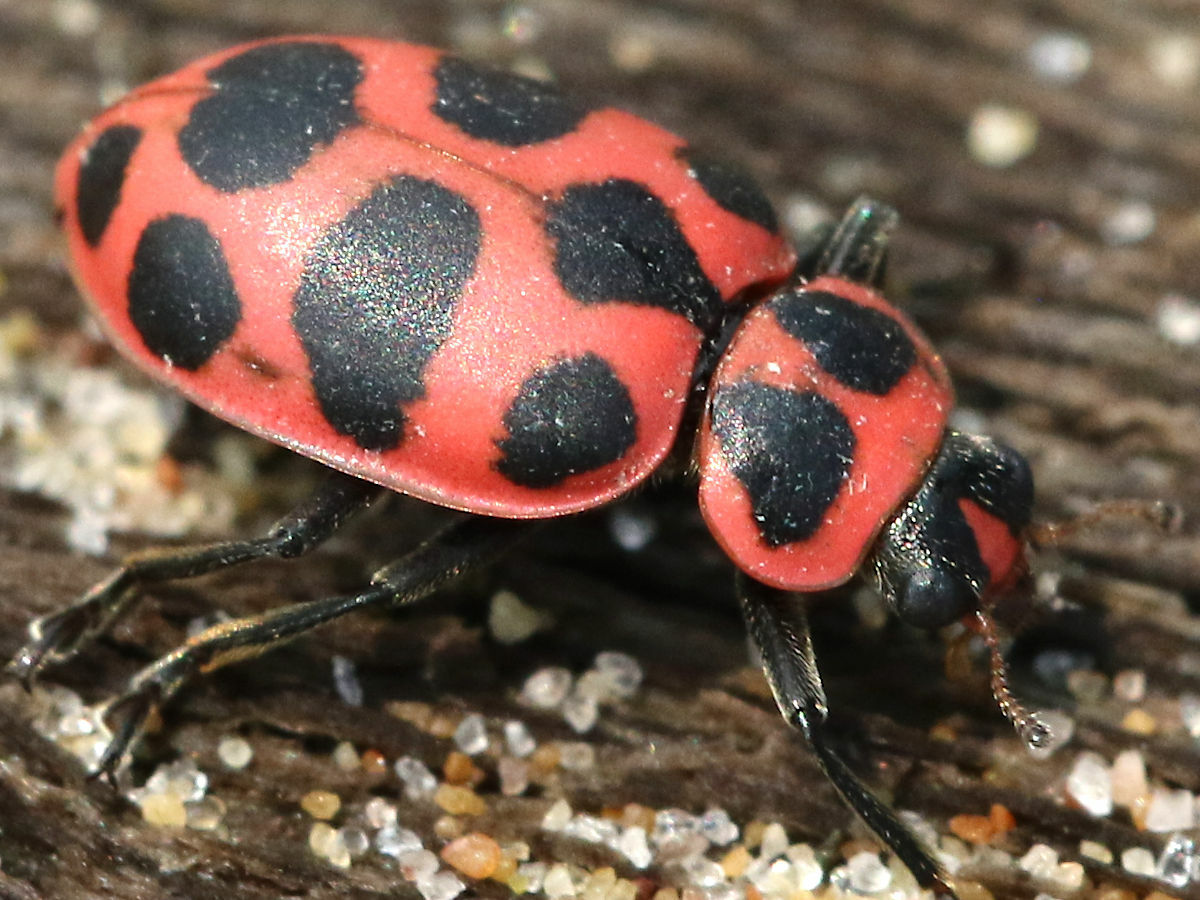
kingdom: Animalia
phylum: Arthropoda
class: Insecta
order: Coleoptera
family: Coccinellidae
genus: Coleomegilla
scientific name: Coleomegilla maculata
